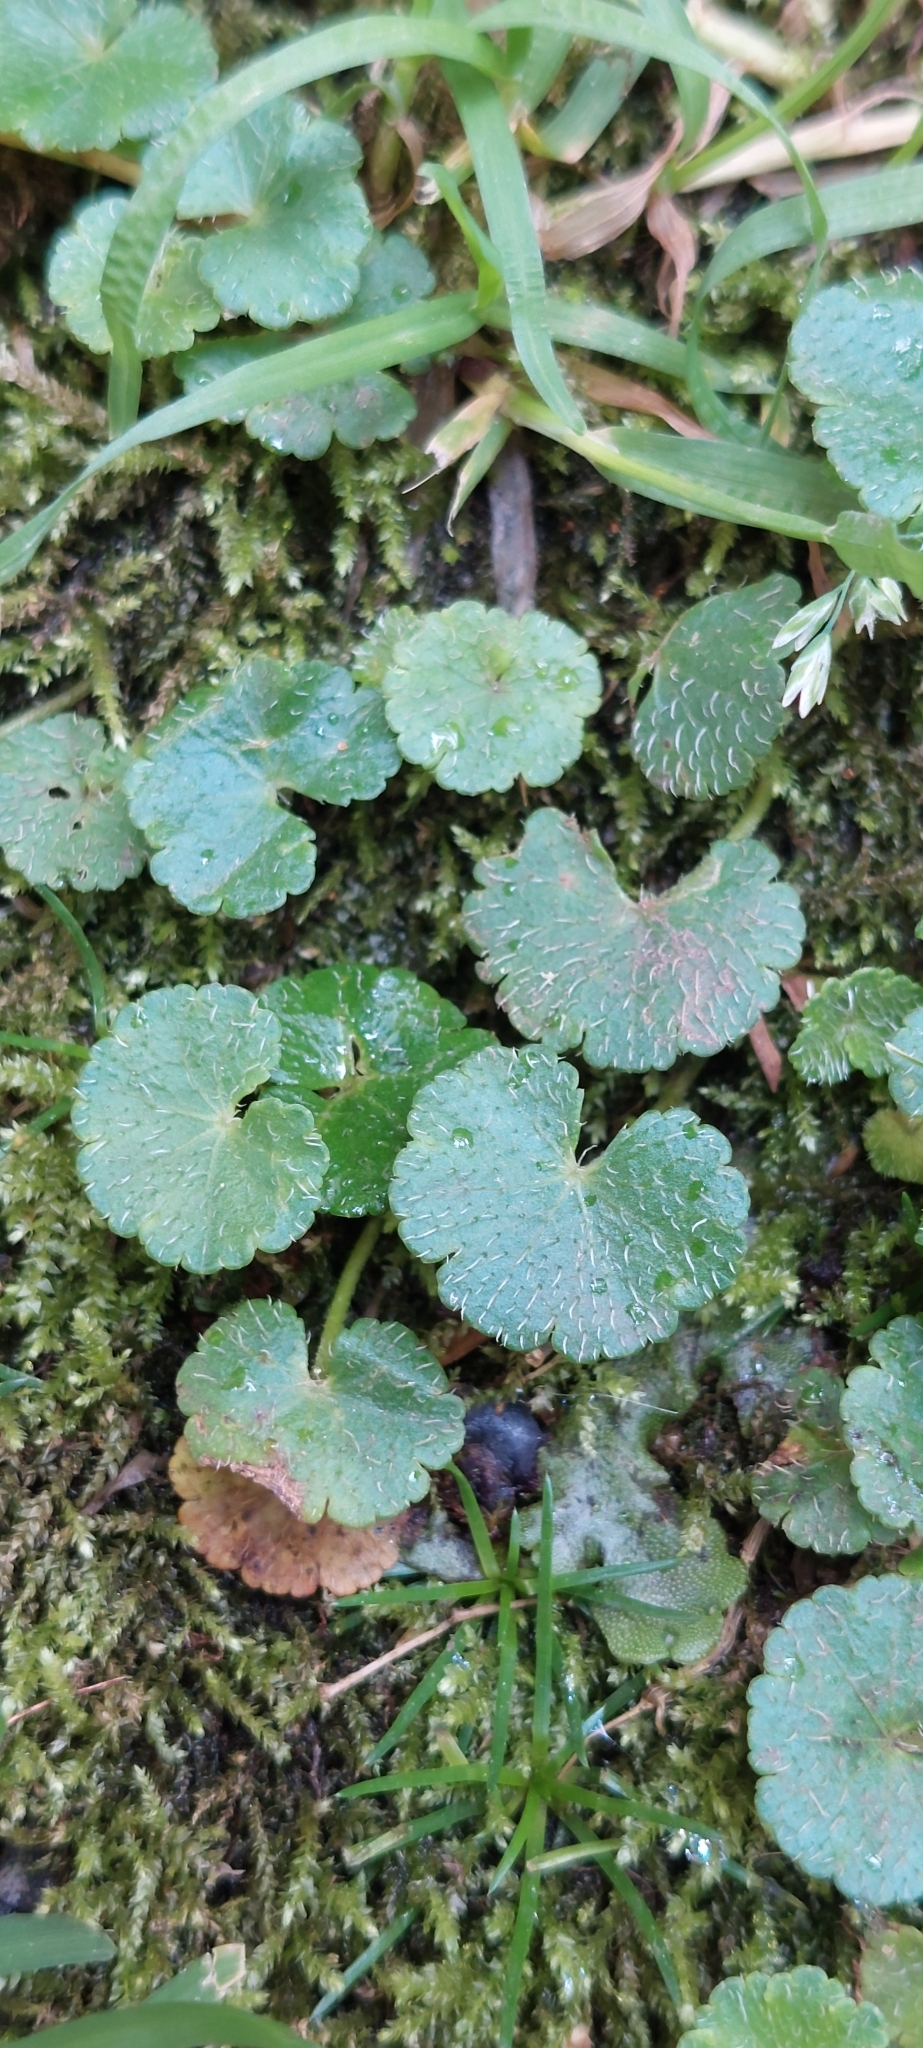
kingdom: Plantae
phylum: Tracheophyta
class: Magnoliopsida
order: Apiales
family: Araliaceae
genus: Hydrocotyle
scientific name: Hydrocotyle bonplandii
